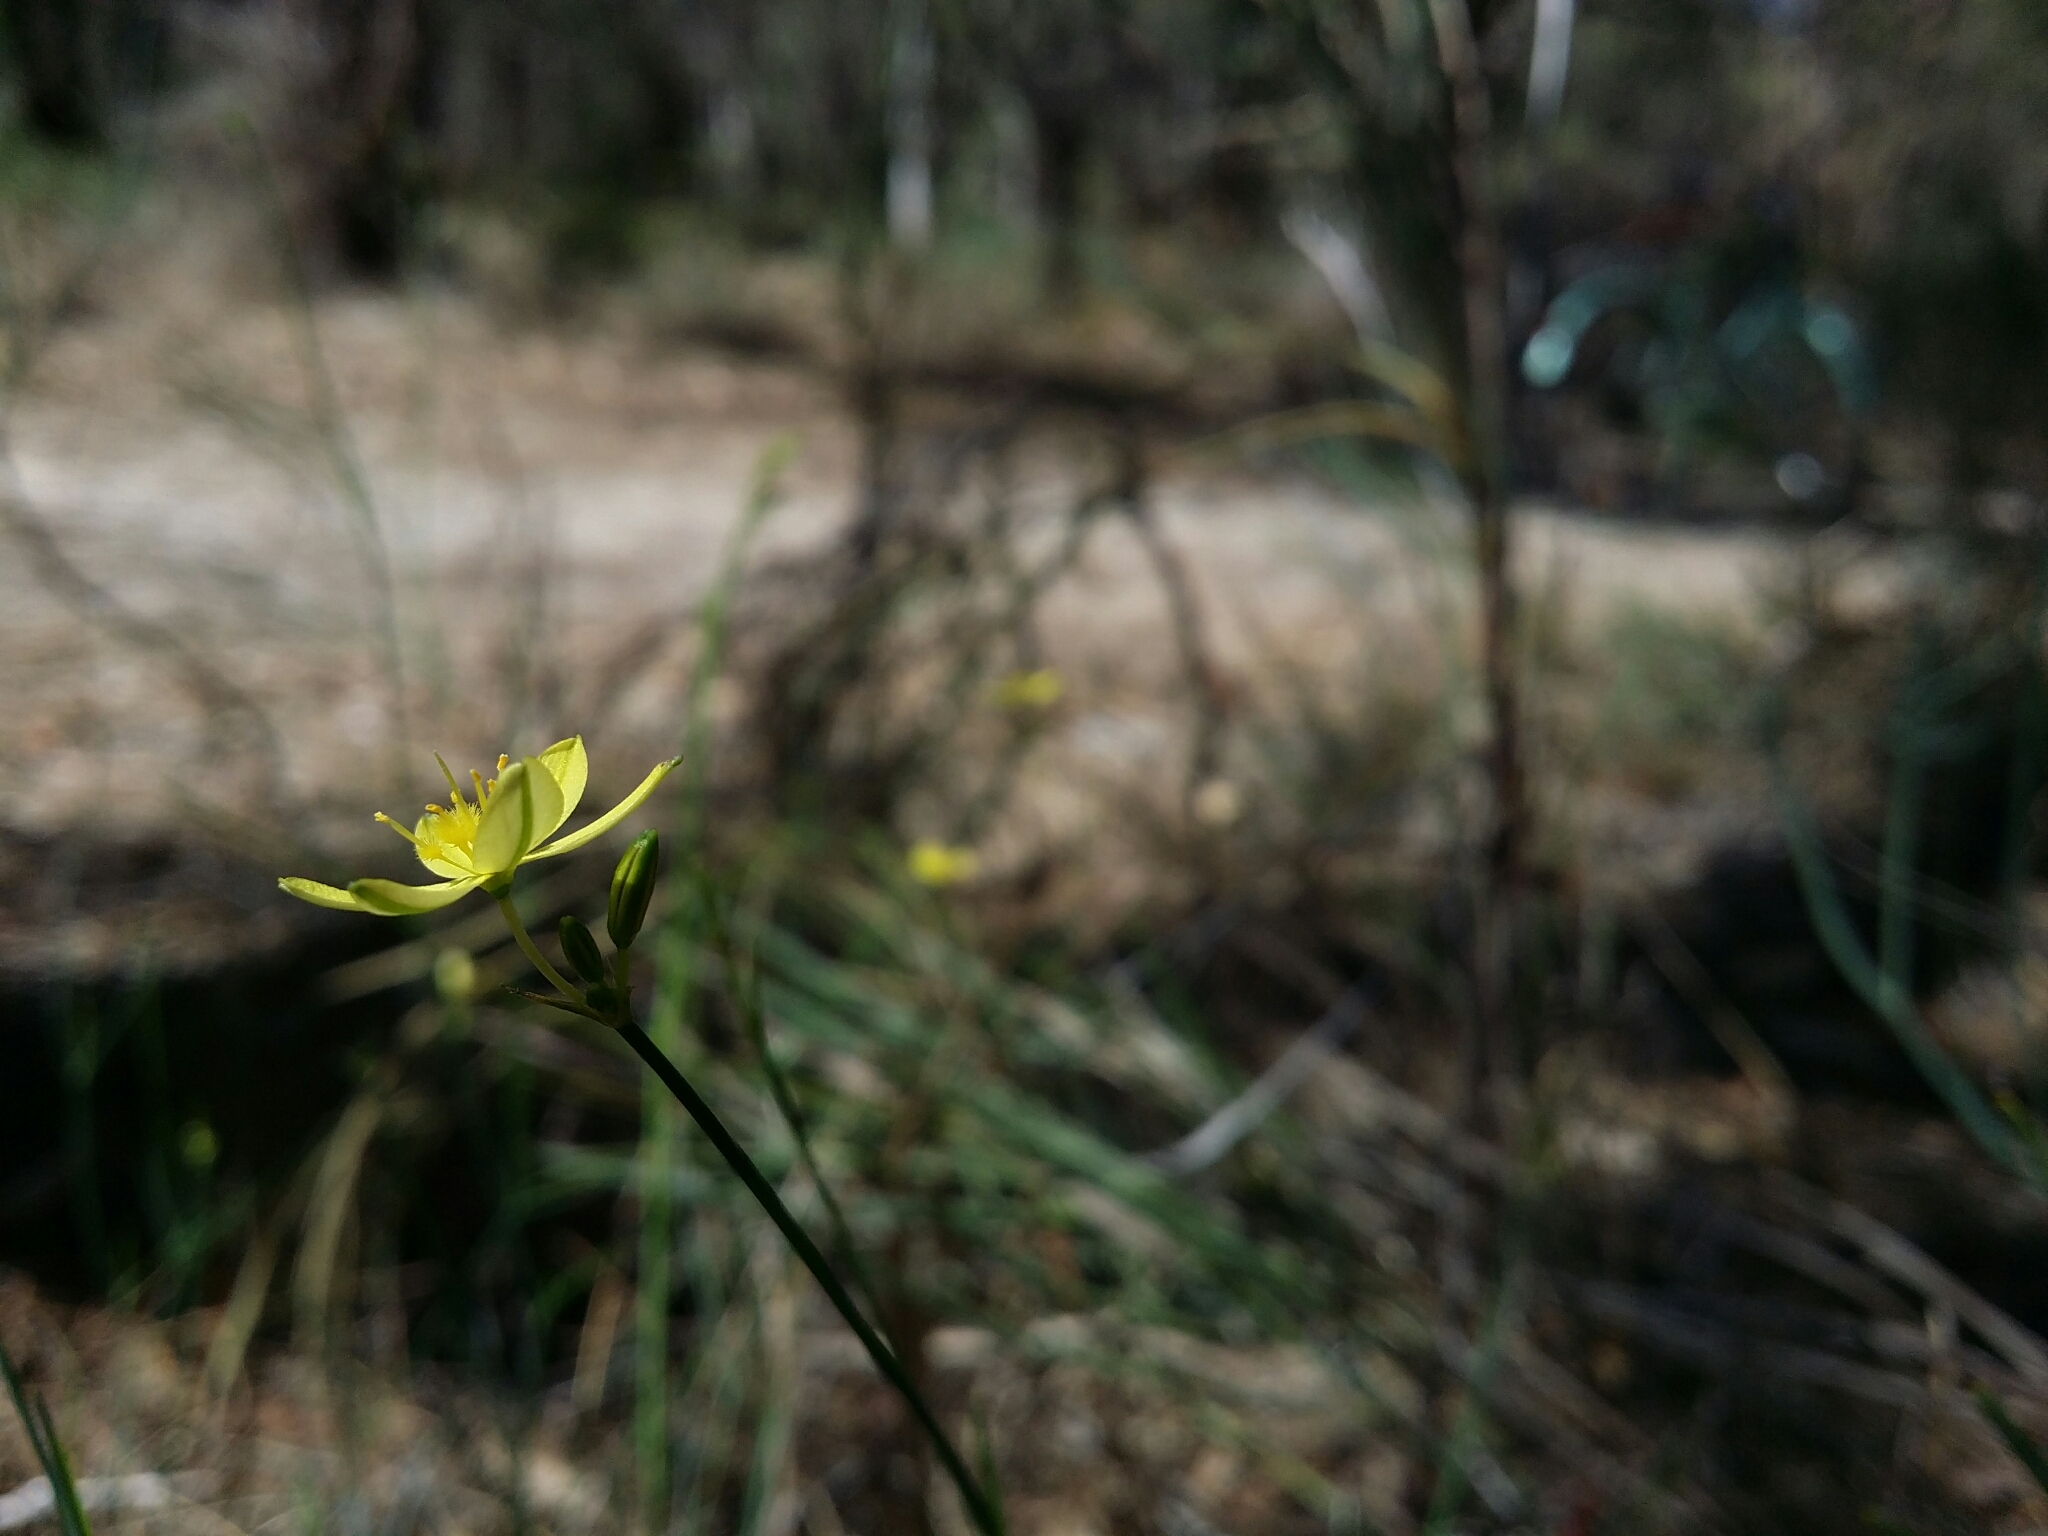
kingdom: Plantae
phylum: Tracheophyta
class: Liliopsida
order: Asparagales
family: Asphodelaceae
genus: Tricoryne
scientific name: Tricoryne elatior
